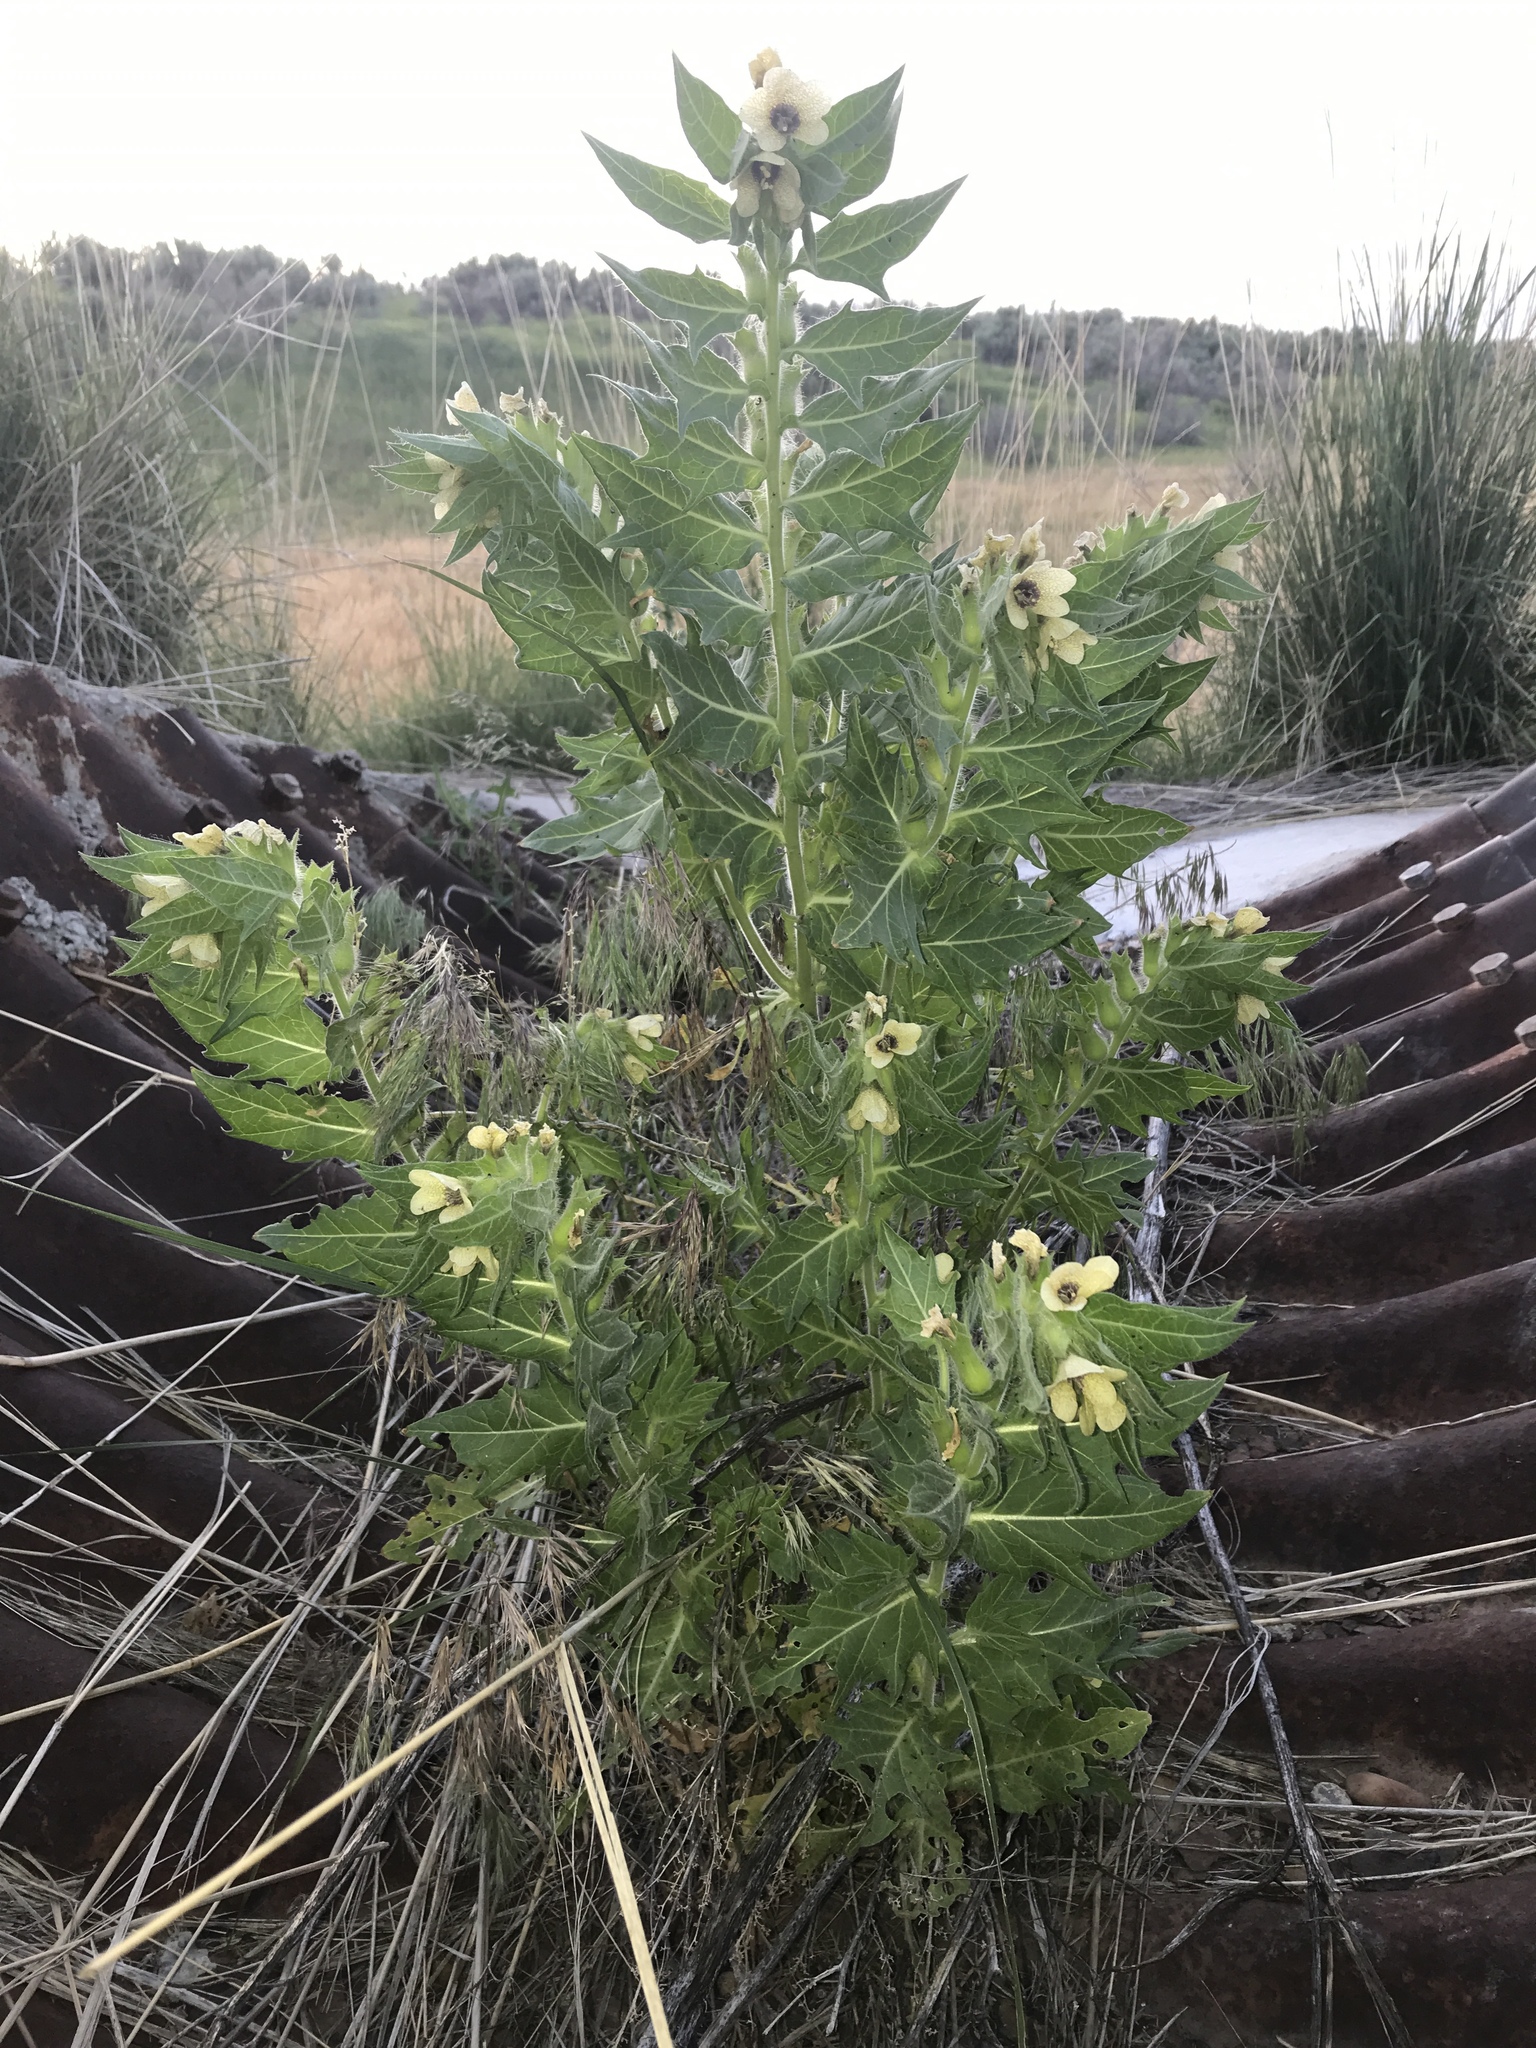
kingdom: Plantae
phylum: Tracheophyta
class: Magnoliopsida
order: Solanales
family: Solanaceae
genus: Hyoscyamus
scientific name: Hyoscyamus niger
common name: Henbane
